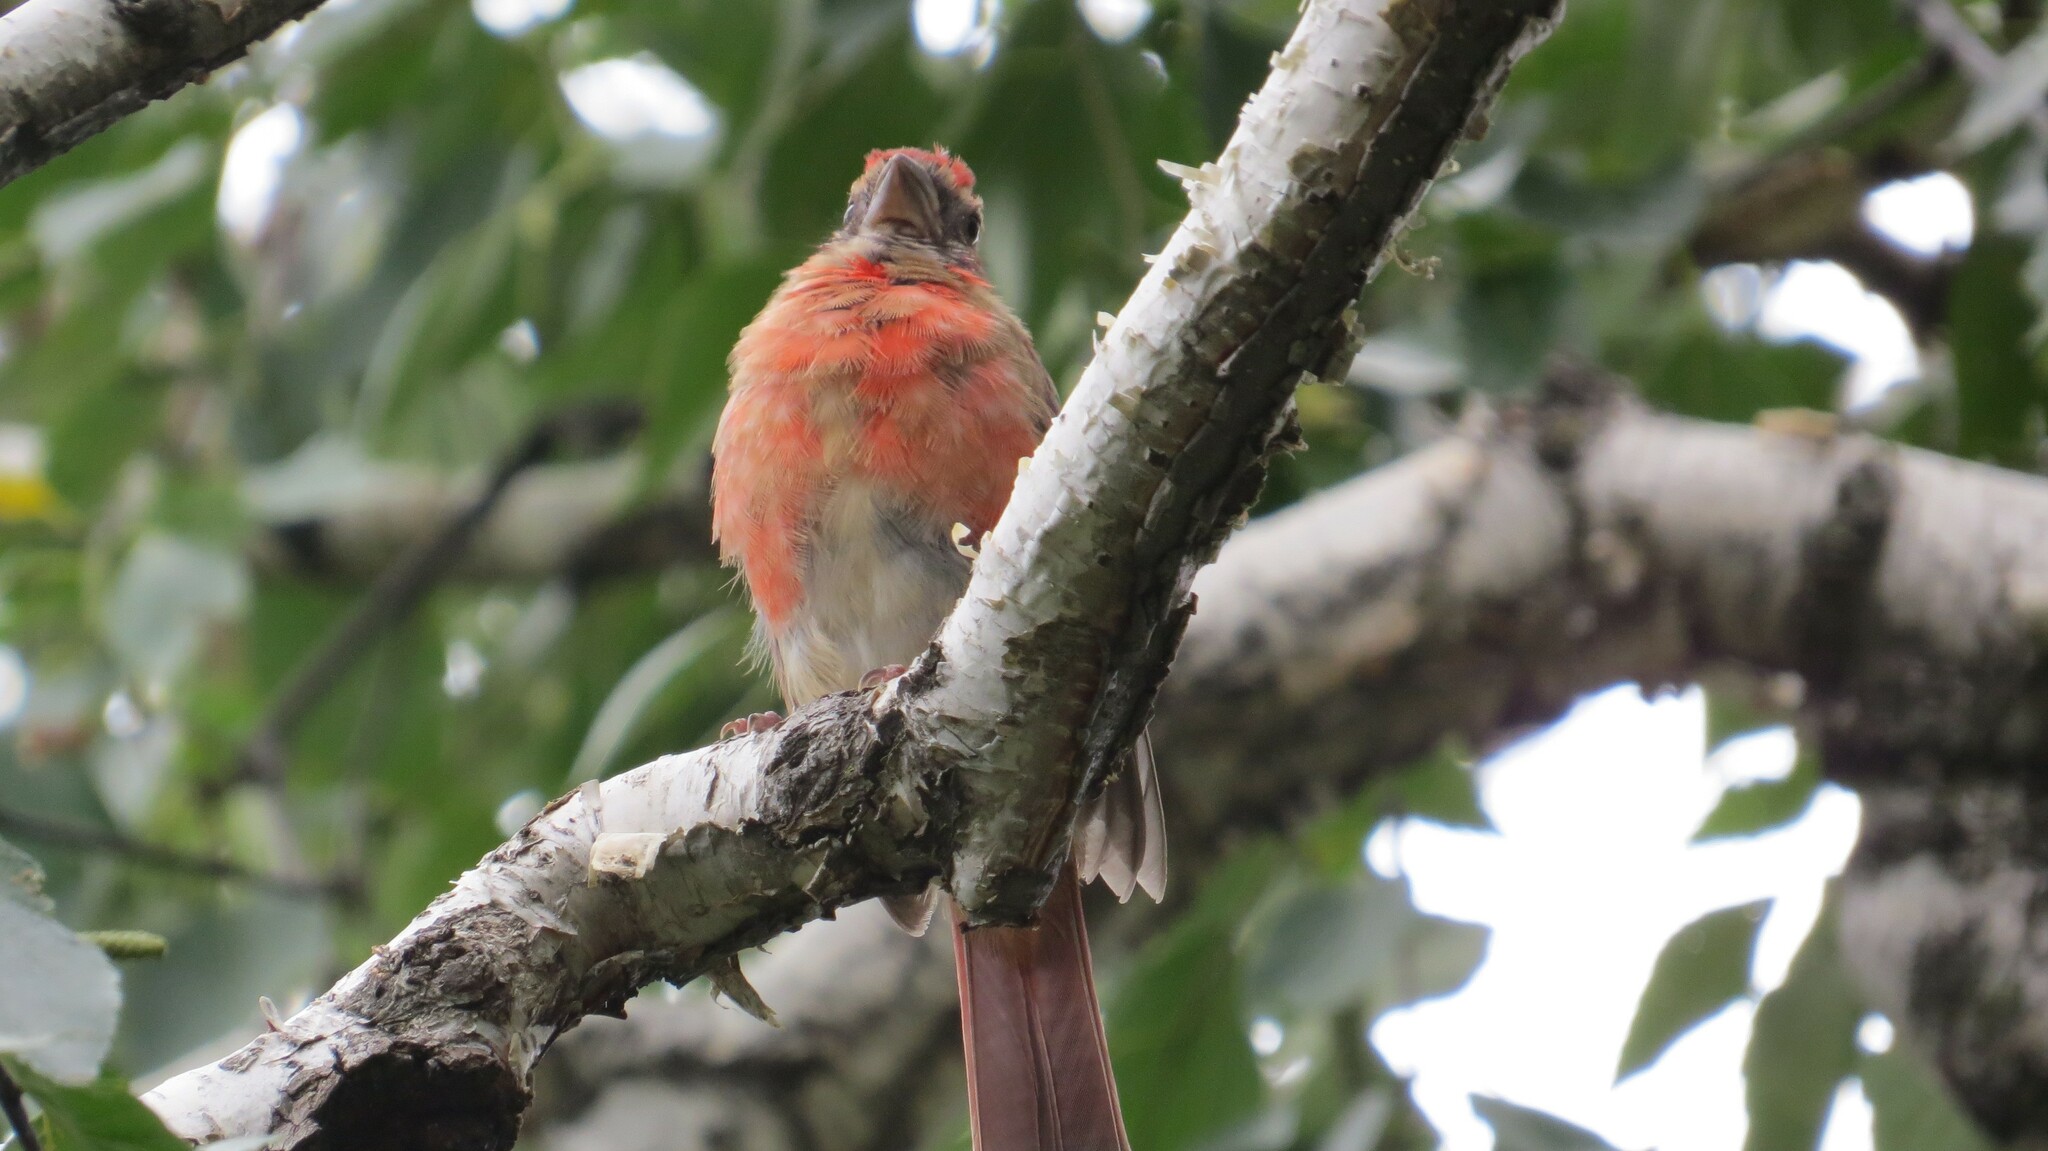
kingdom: Animalia
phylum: Chordata
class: Aves
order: Passeriformes
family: Cardinalidae
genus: Cardinalis
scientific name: Cardinalis cardinalis
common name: Northern cardinal
